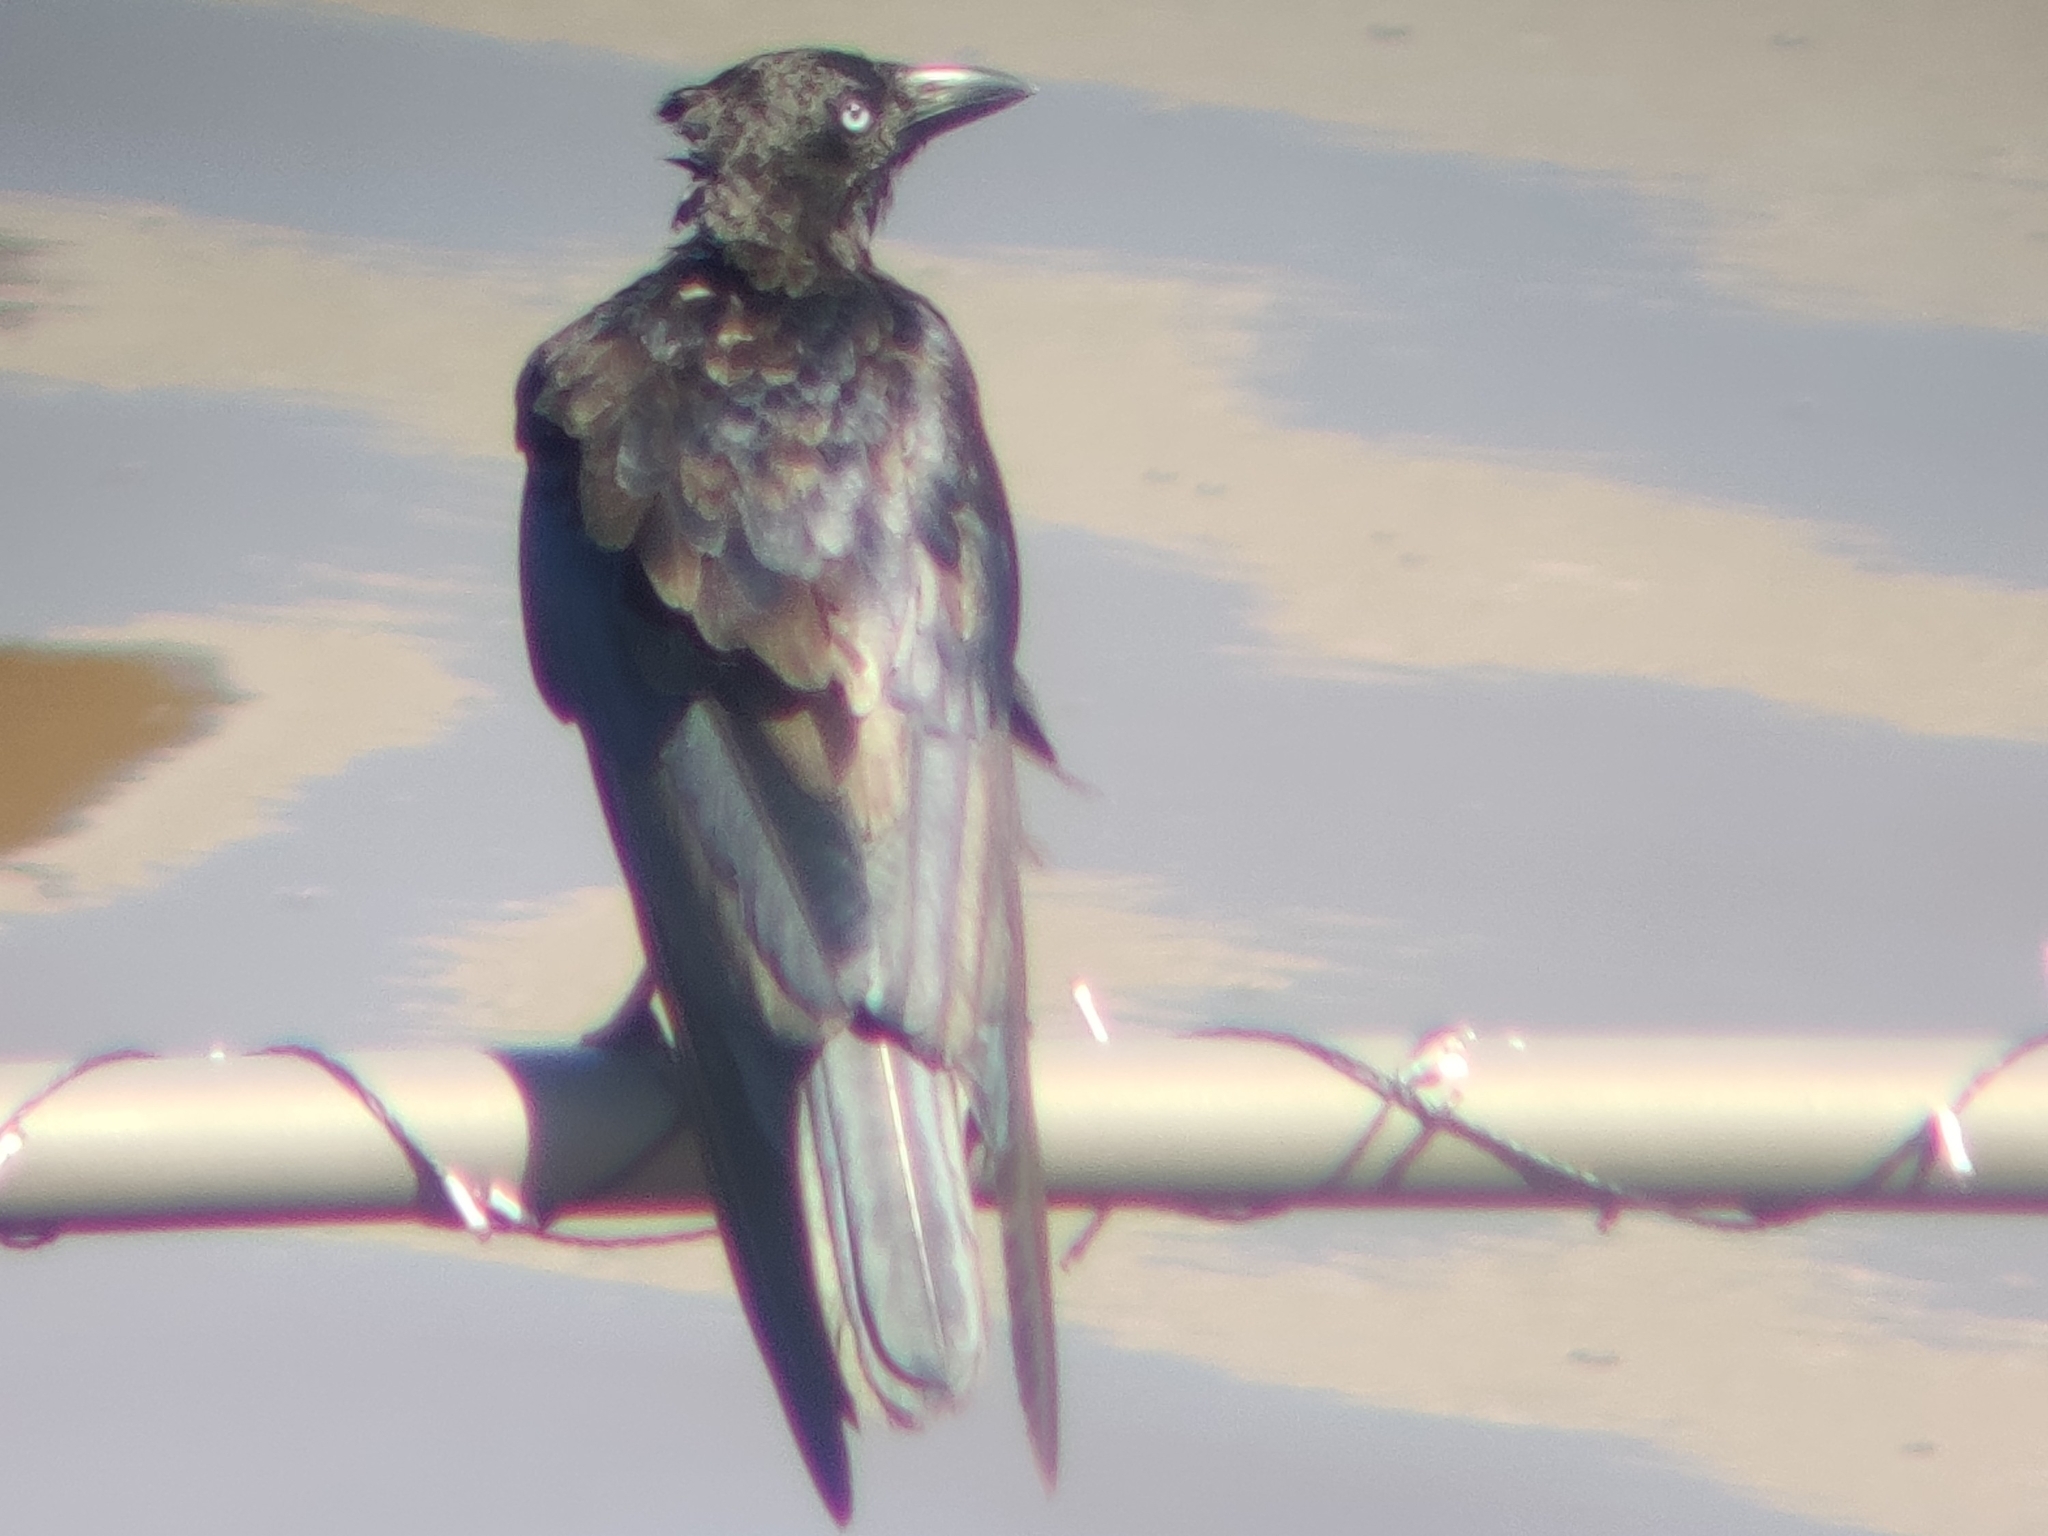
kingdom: Animalia
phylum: Chordata
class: Aves
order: Passeriformes
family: Corvidae
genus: Corvus
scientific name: Corvus orru
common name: Torresian crow
